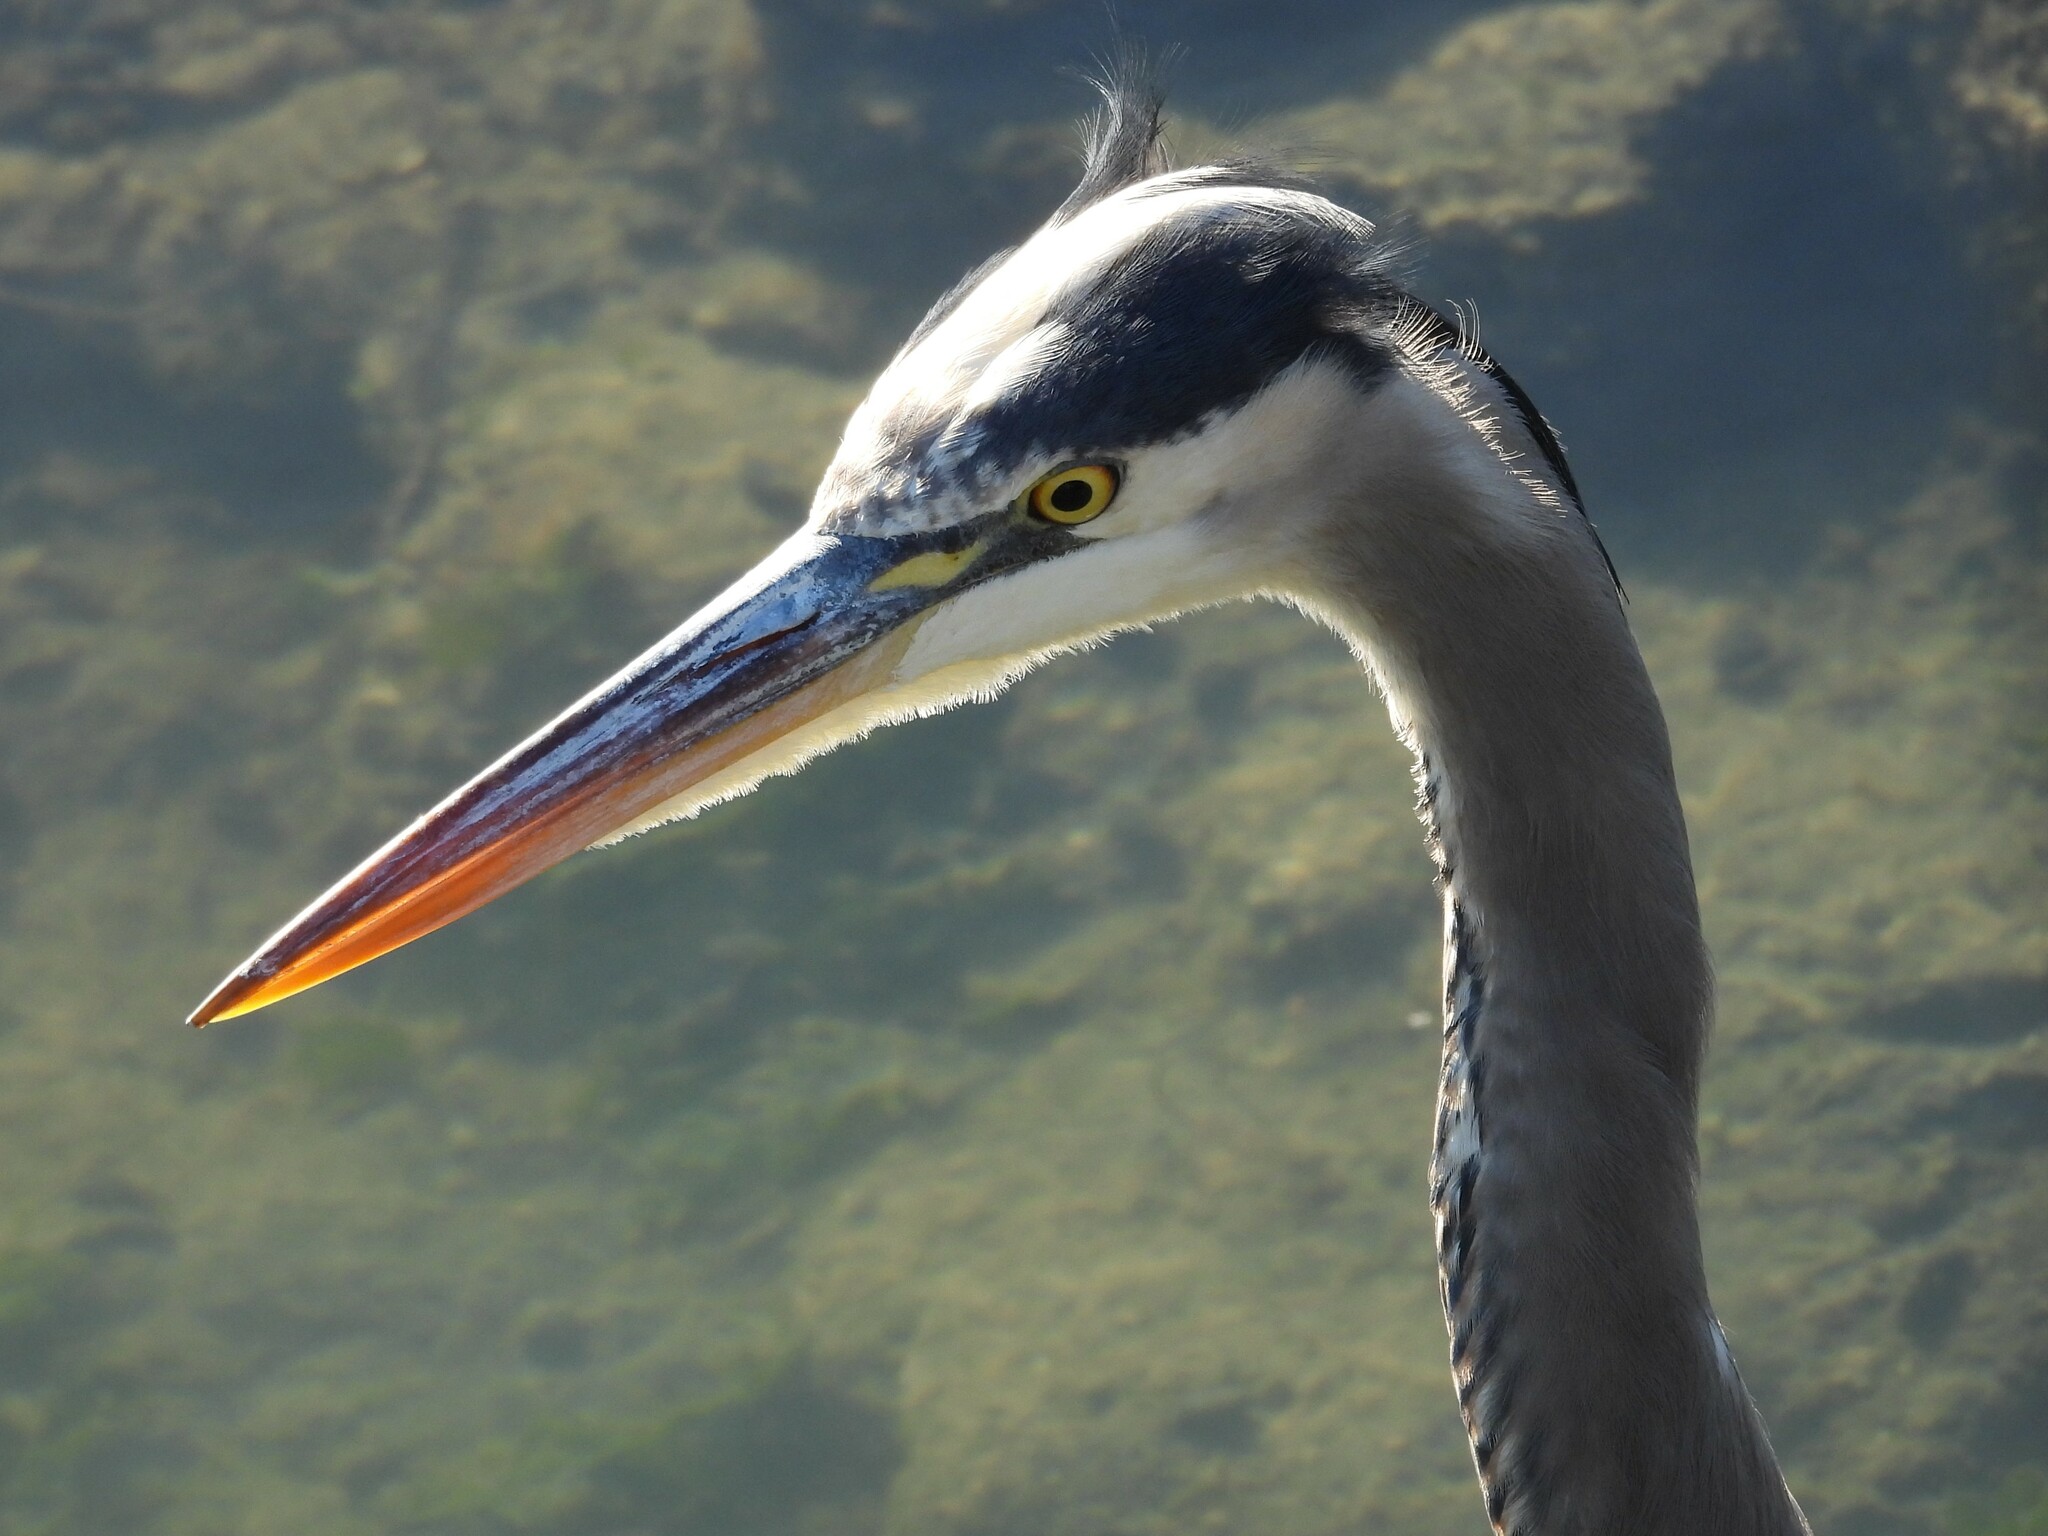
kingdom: Animalia
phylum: Chordata
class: Aves
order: Pelecaniformes
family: Ardeidae
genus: Ardea
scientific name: Ardea herodias
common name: Great blue heron
